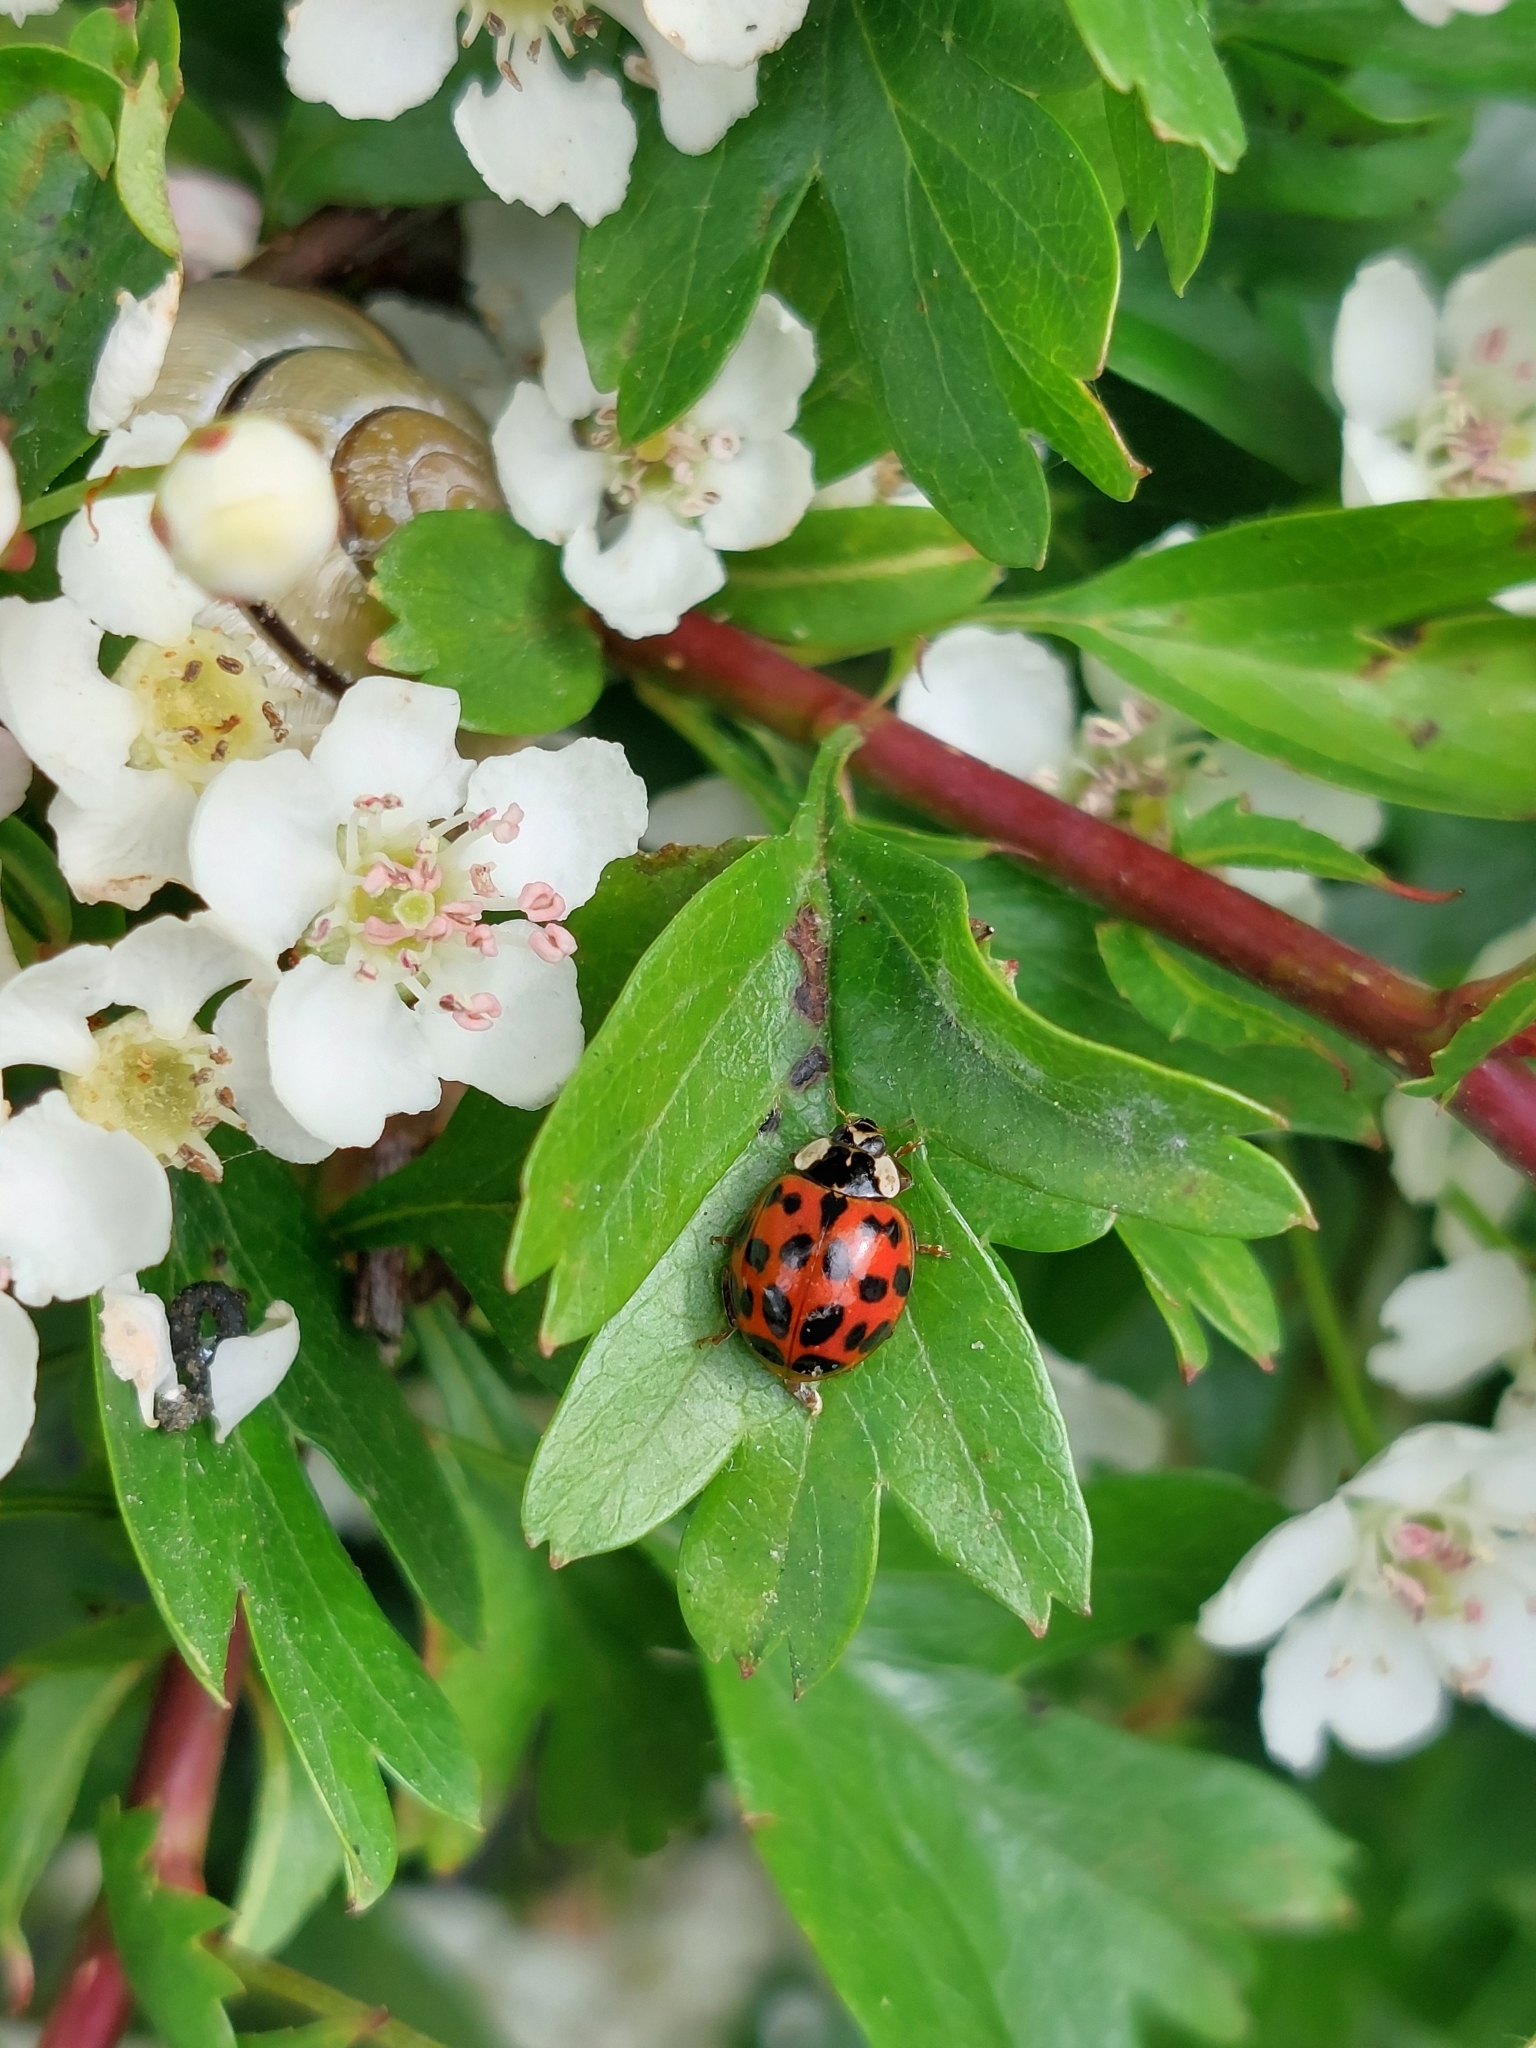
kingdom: Animalia
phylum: Arthropoda
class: Insecta
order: Coleoptera
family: Coccinellidae
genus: Harmonia
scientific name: Harmonia axyridis
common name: Harlequin ladybird
